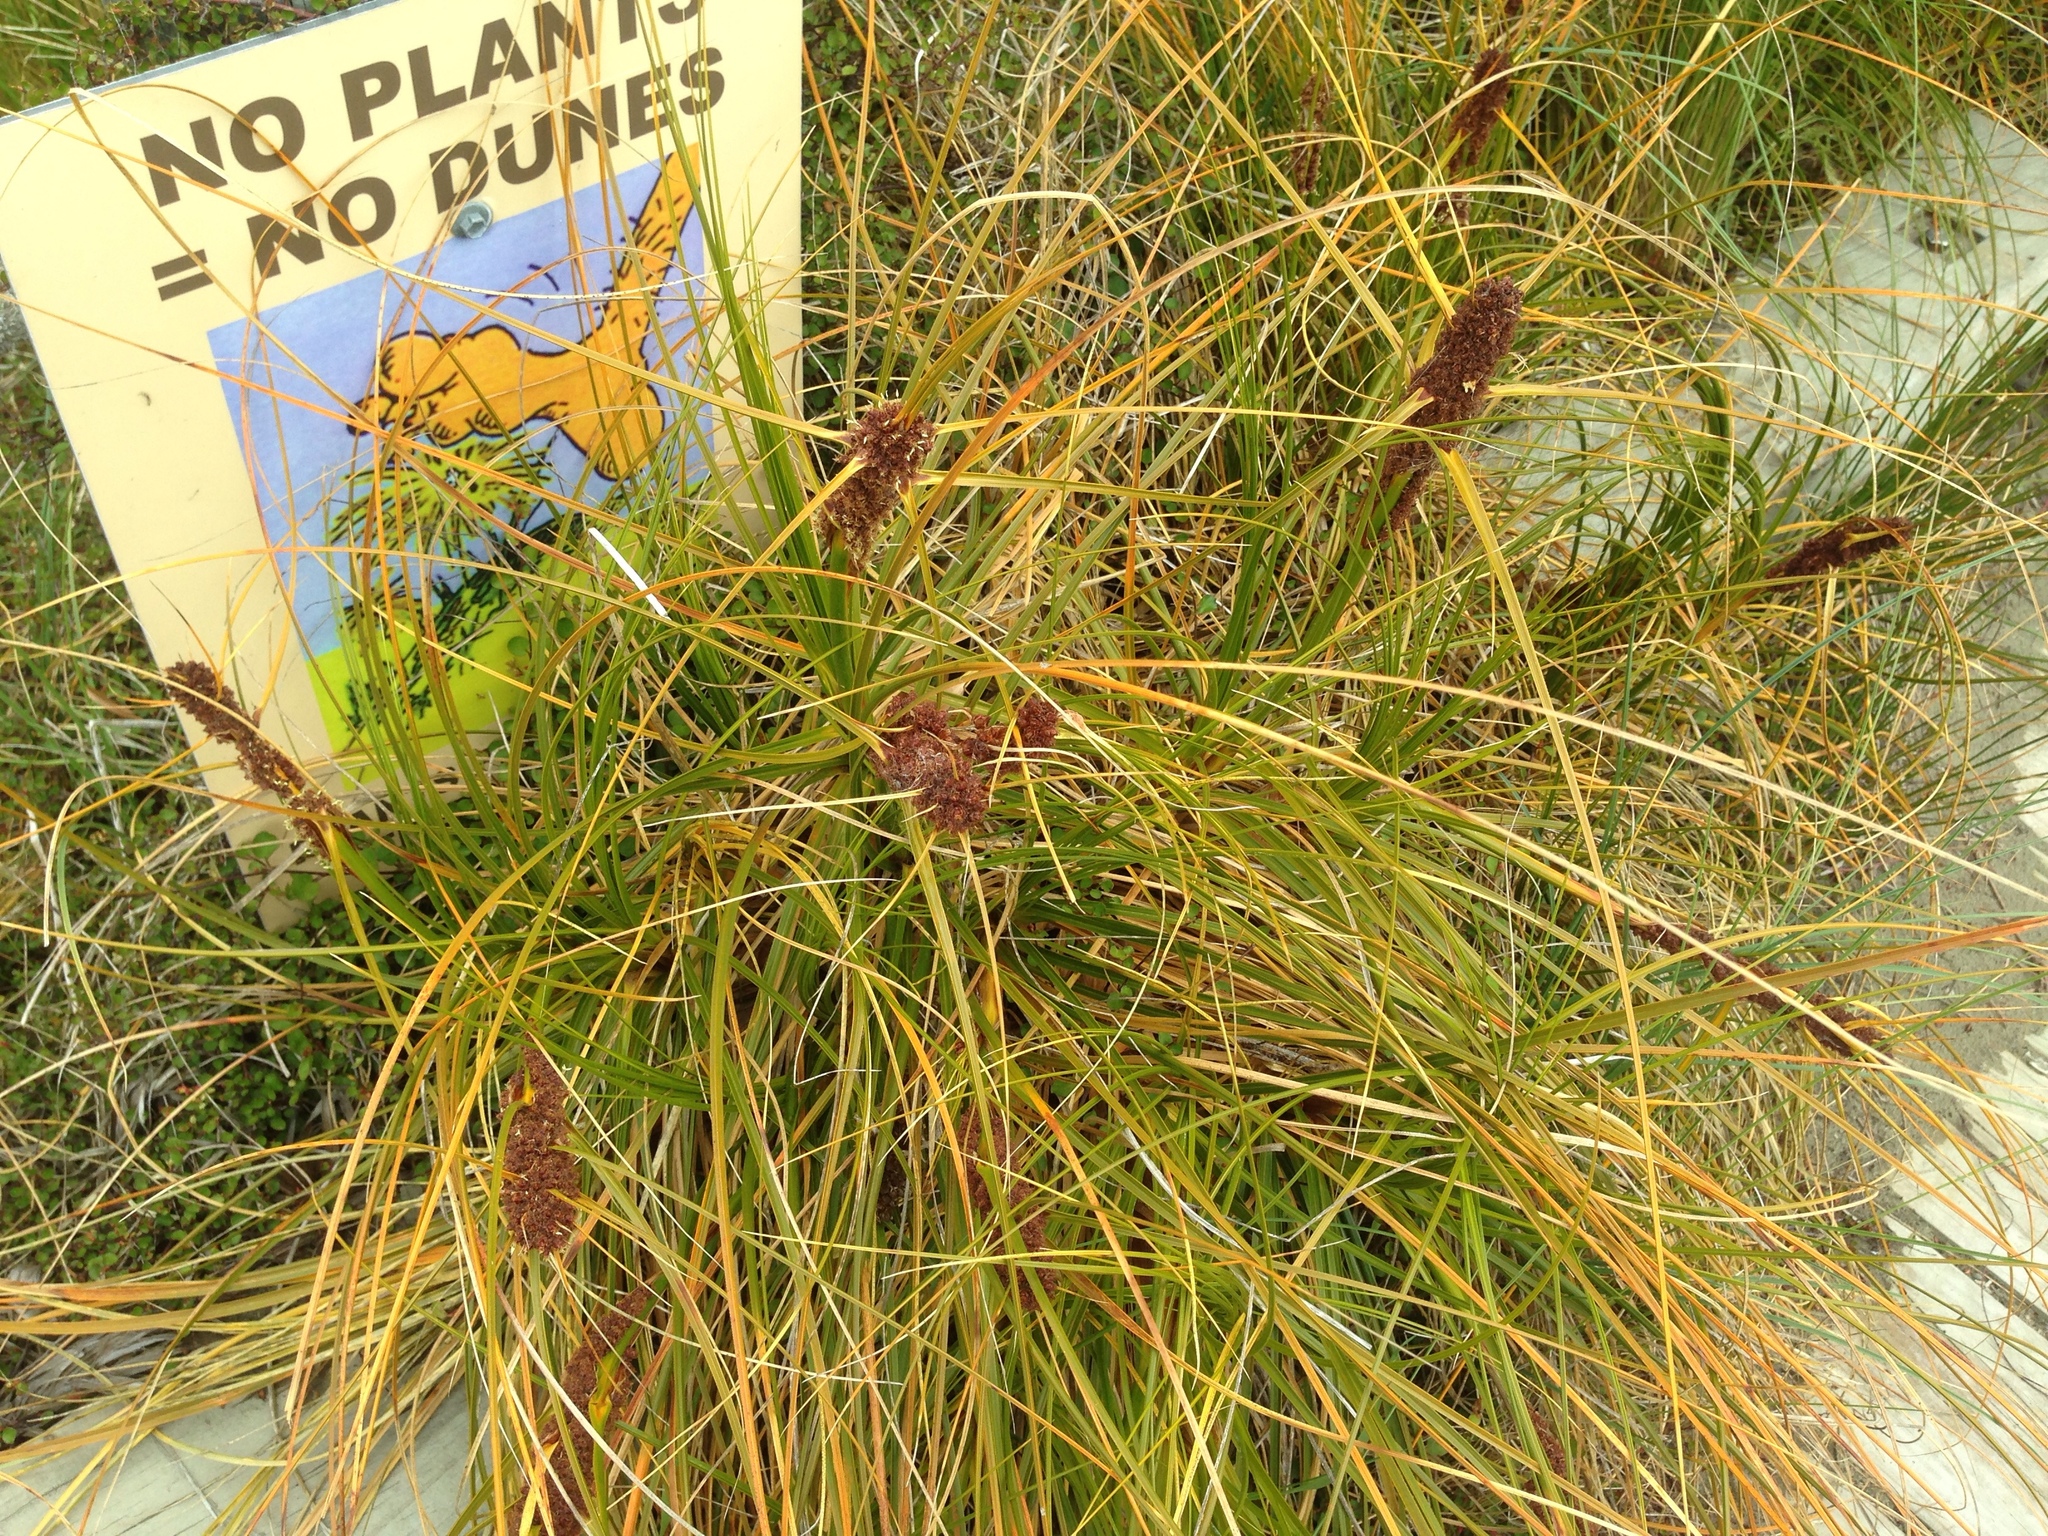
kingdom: Plantae
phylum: Tracheophyta
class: Liliopsida
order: Poales
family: Cyperaceae
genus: Ficinia
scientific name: Ficinia spiralis
